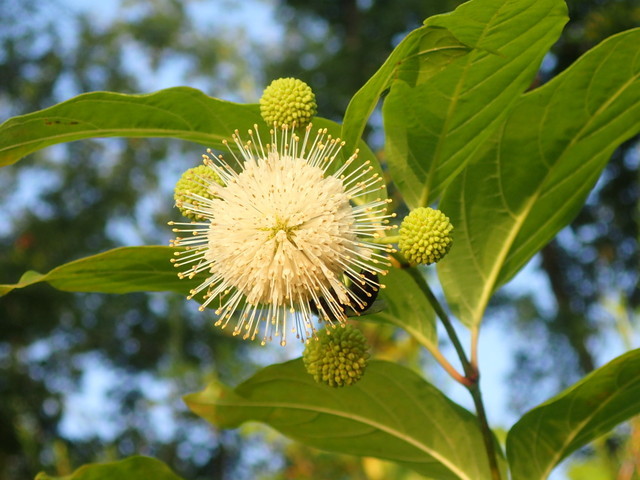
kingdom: Plantae
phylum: Tracheophyta
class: Magnoliopsida
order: Gentianales
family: Rubiaceae
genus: Cephalanthus
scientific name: Cephalanthus occidentalis
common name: Button-willow
